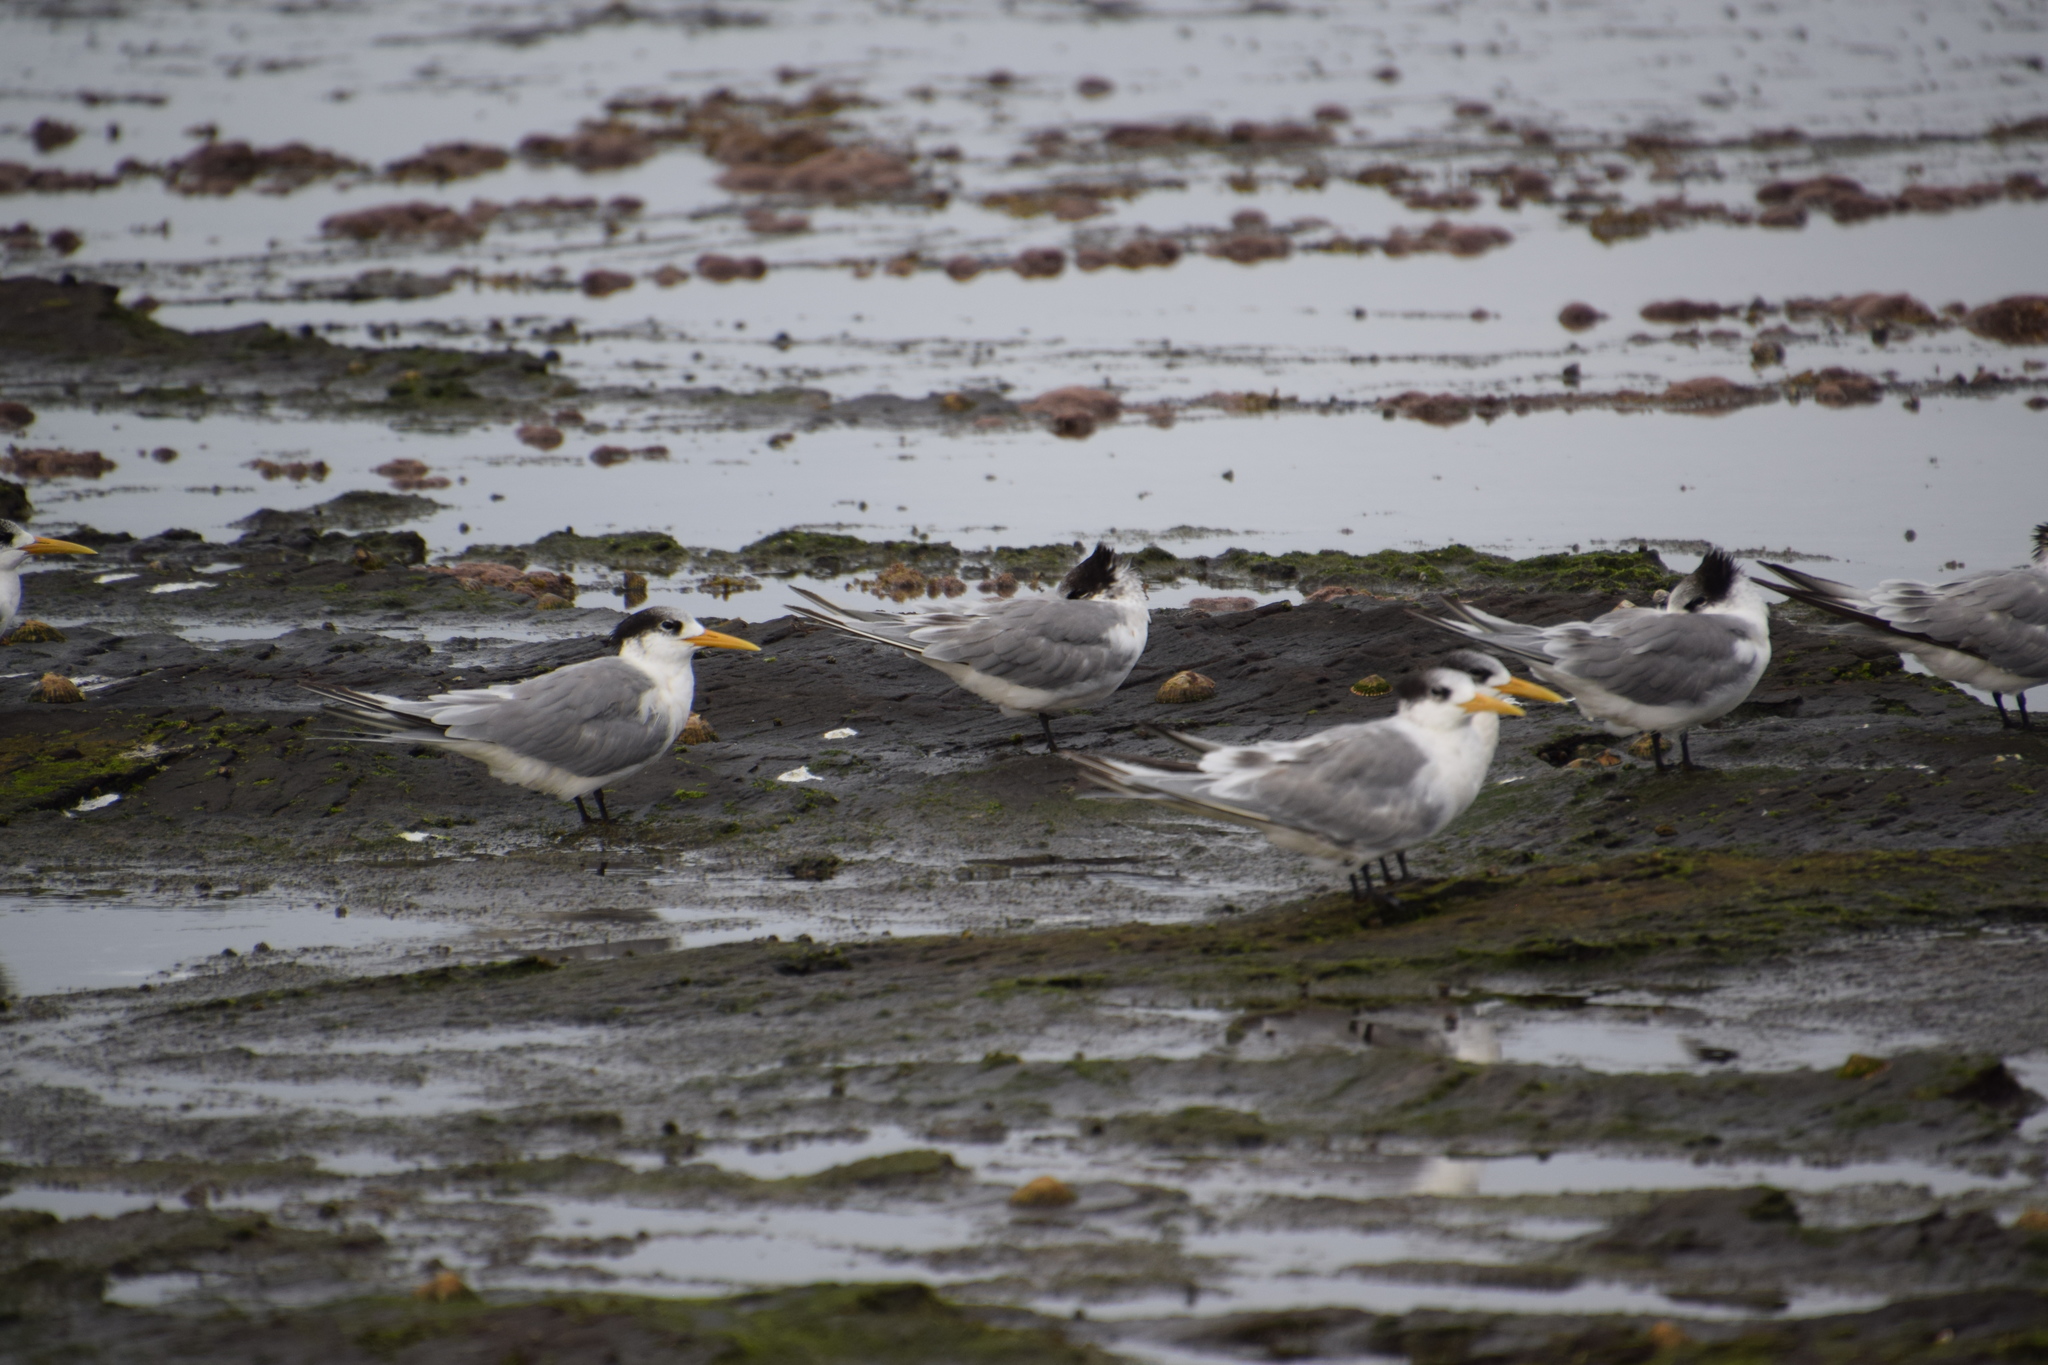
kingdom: Animalia
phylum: Chordata
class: Aves
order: Charadriiformes
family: Laridae
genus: Thalasseus
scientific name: Thalasseus bergii
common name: Greater crested tern
